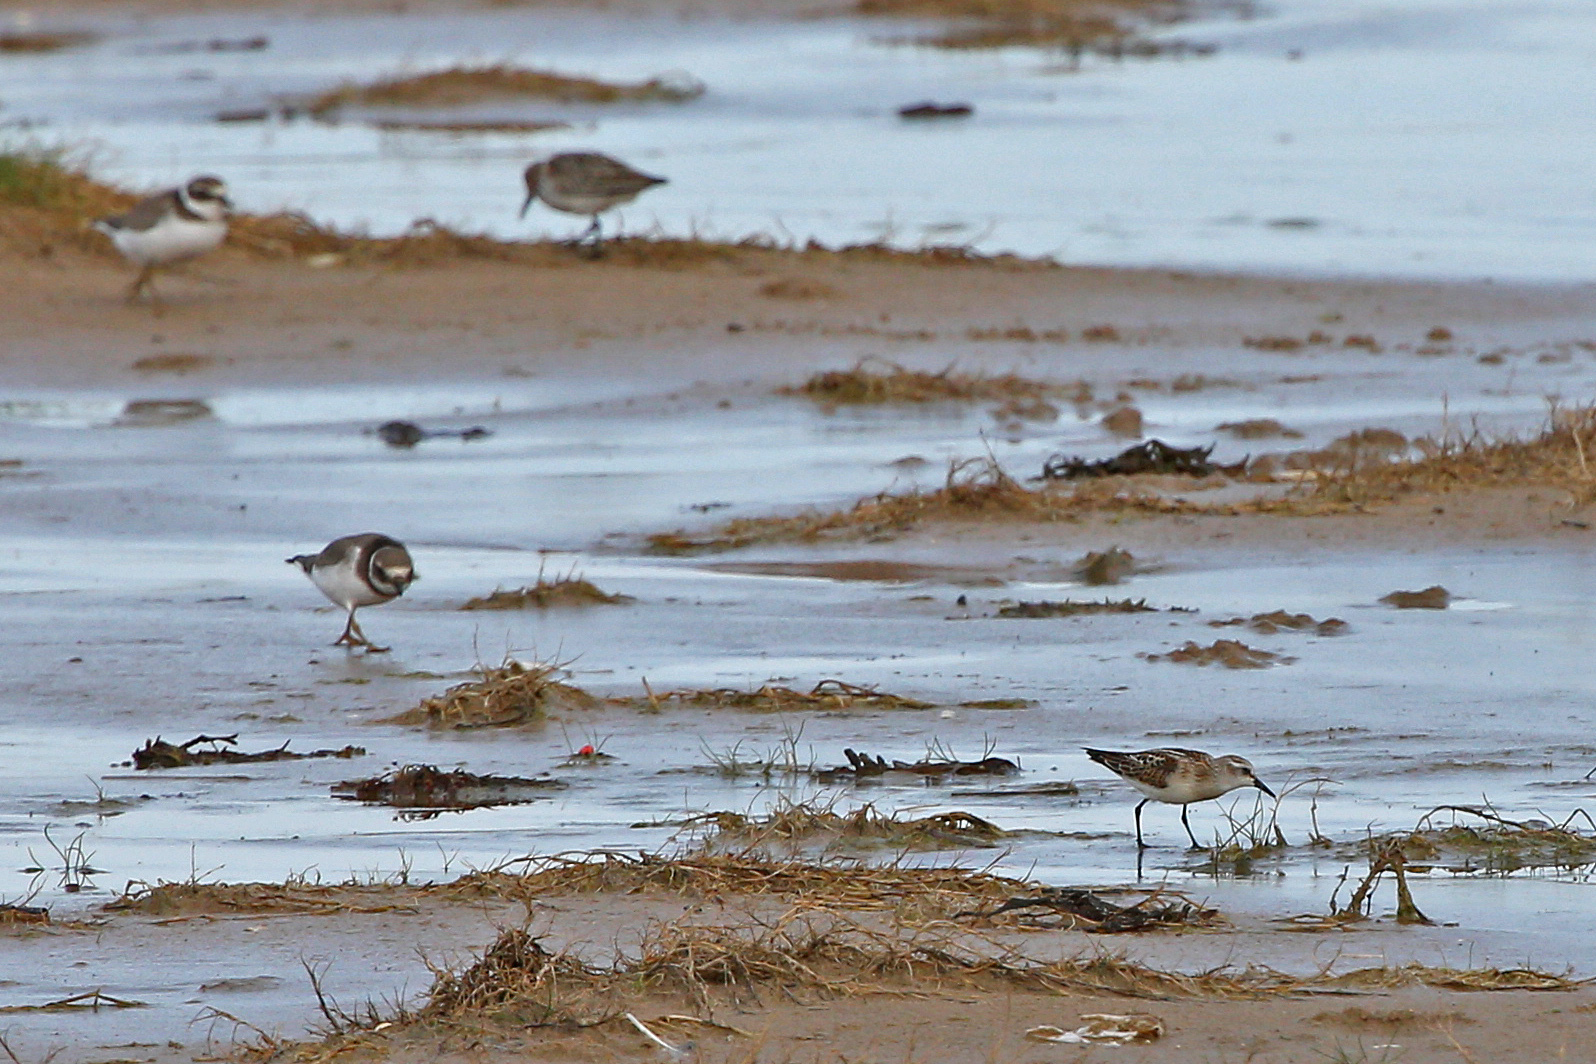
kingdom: Animalia
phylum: Chordata
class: Aves
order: Charadriiformes
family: Scolopacidae
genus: Calidris
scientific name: Calidris minuta
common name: Little stint
